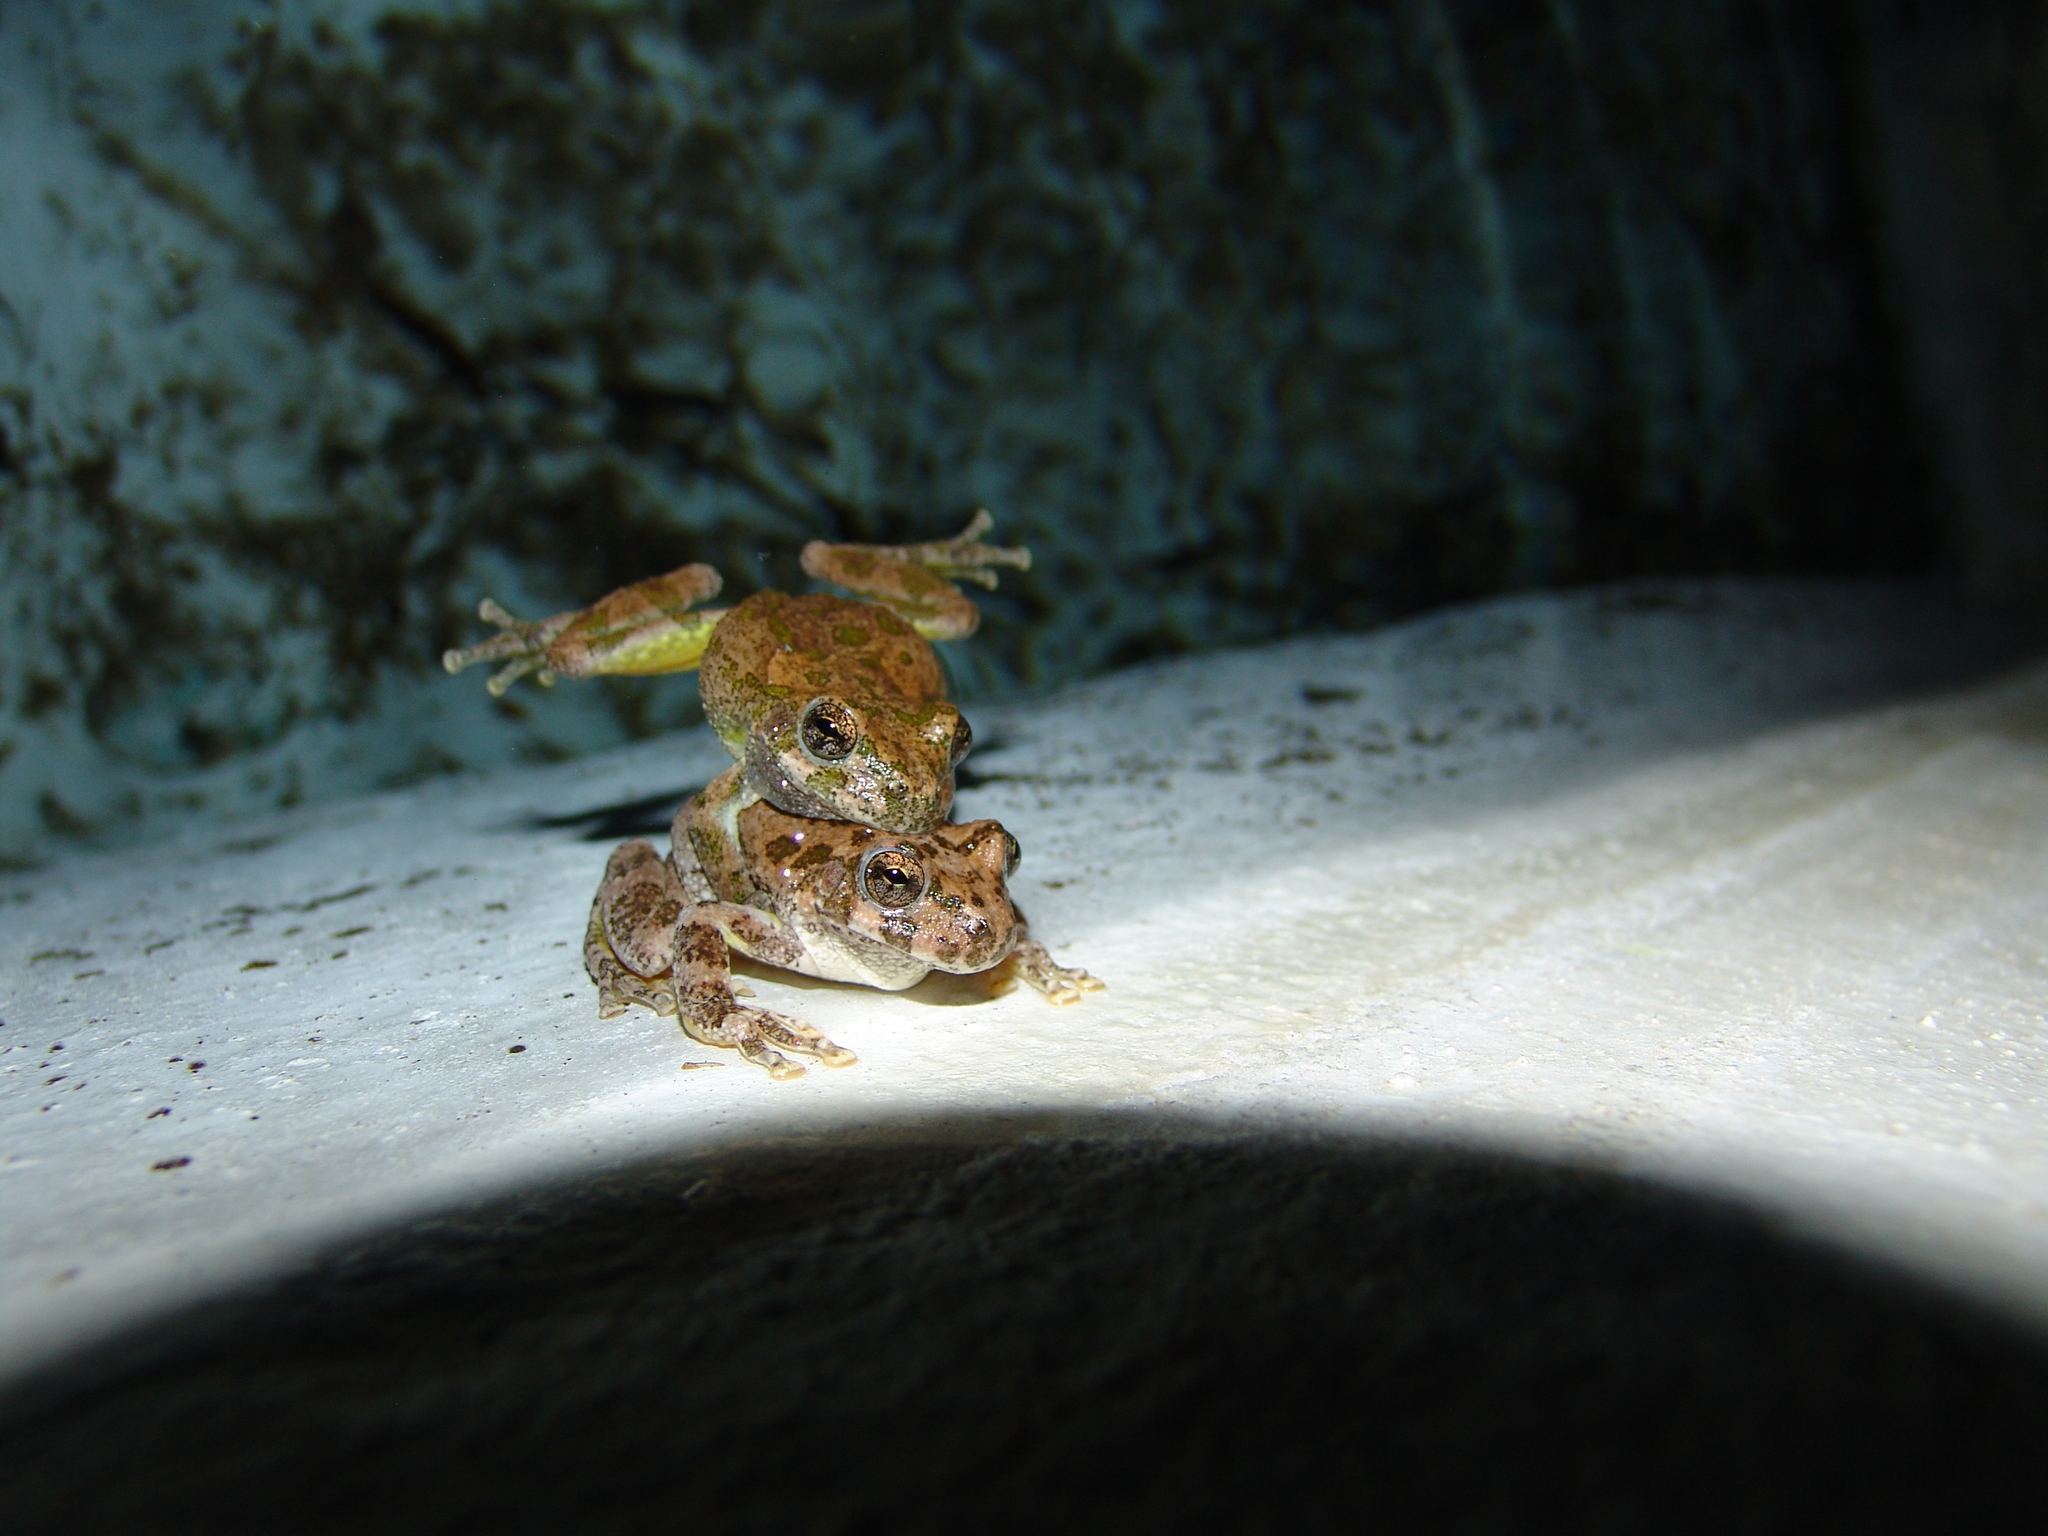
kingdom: Animalia
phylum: Chordata
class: Amphibia
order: Anura
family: Hylidae
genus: Dryophytes
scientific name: Dryophytes arenicolor
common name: Canyon treefrog
